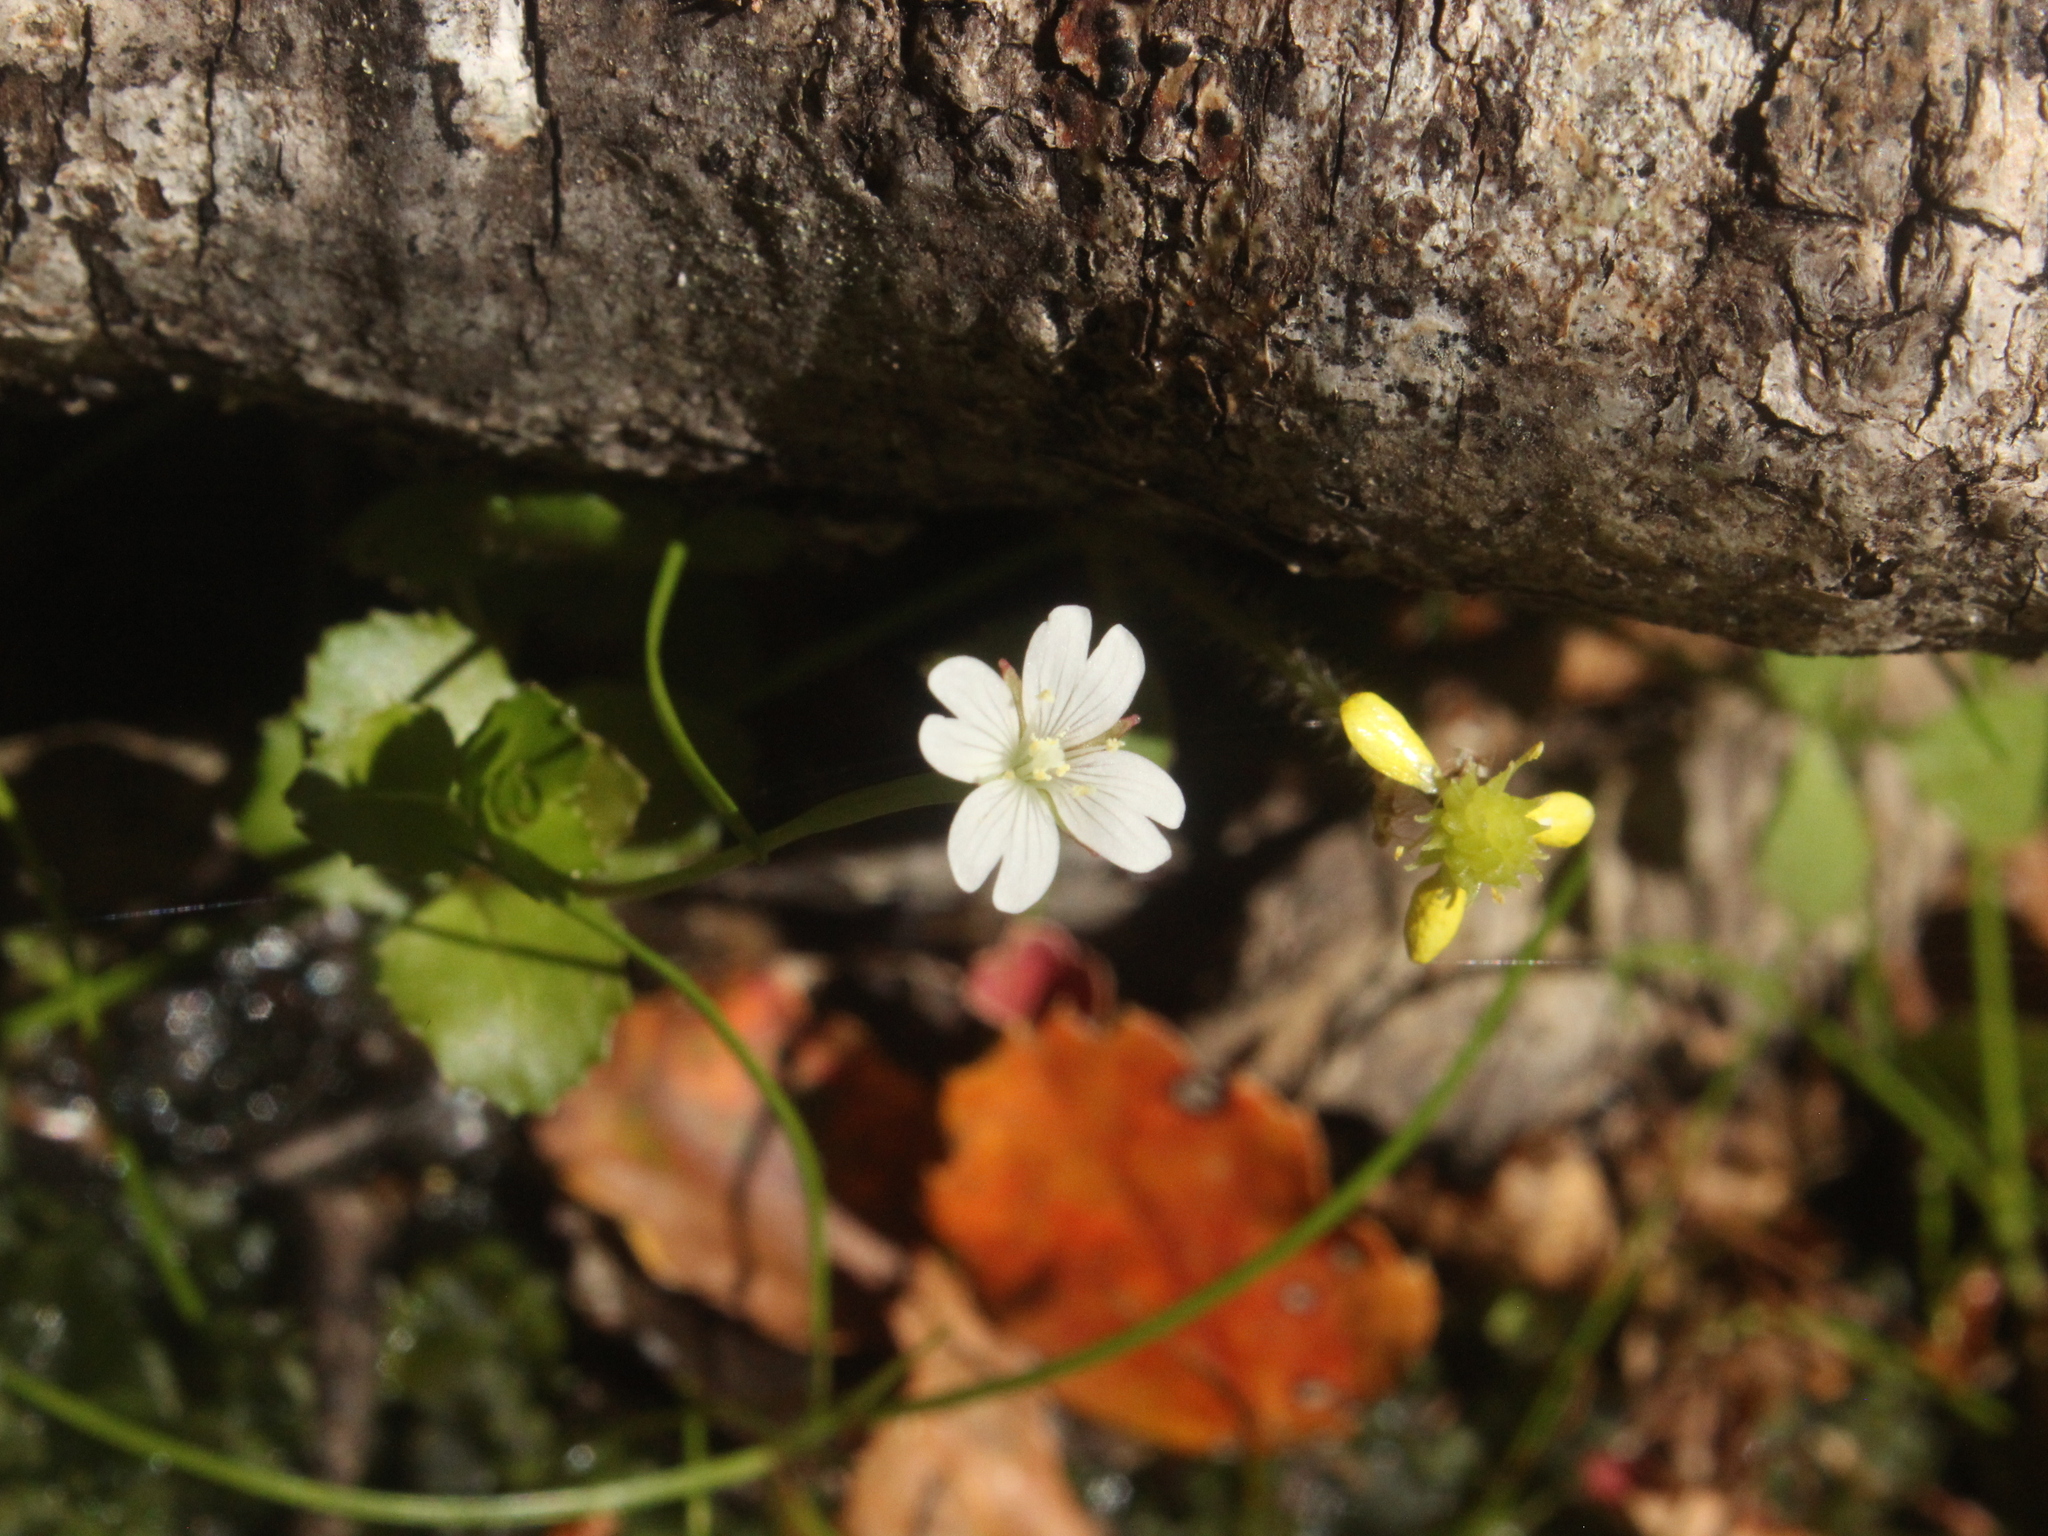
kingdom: Plantae
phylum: Tracheophyta
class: Magnoliopsida
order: Myrtales
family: Onagraceae
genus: Epilobium
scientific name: Epilobium pedunculare
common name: Rockery willowherb
